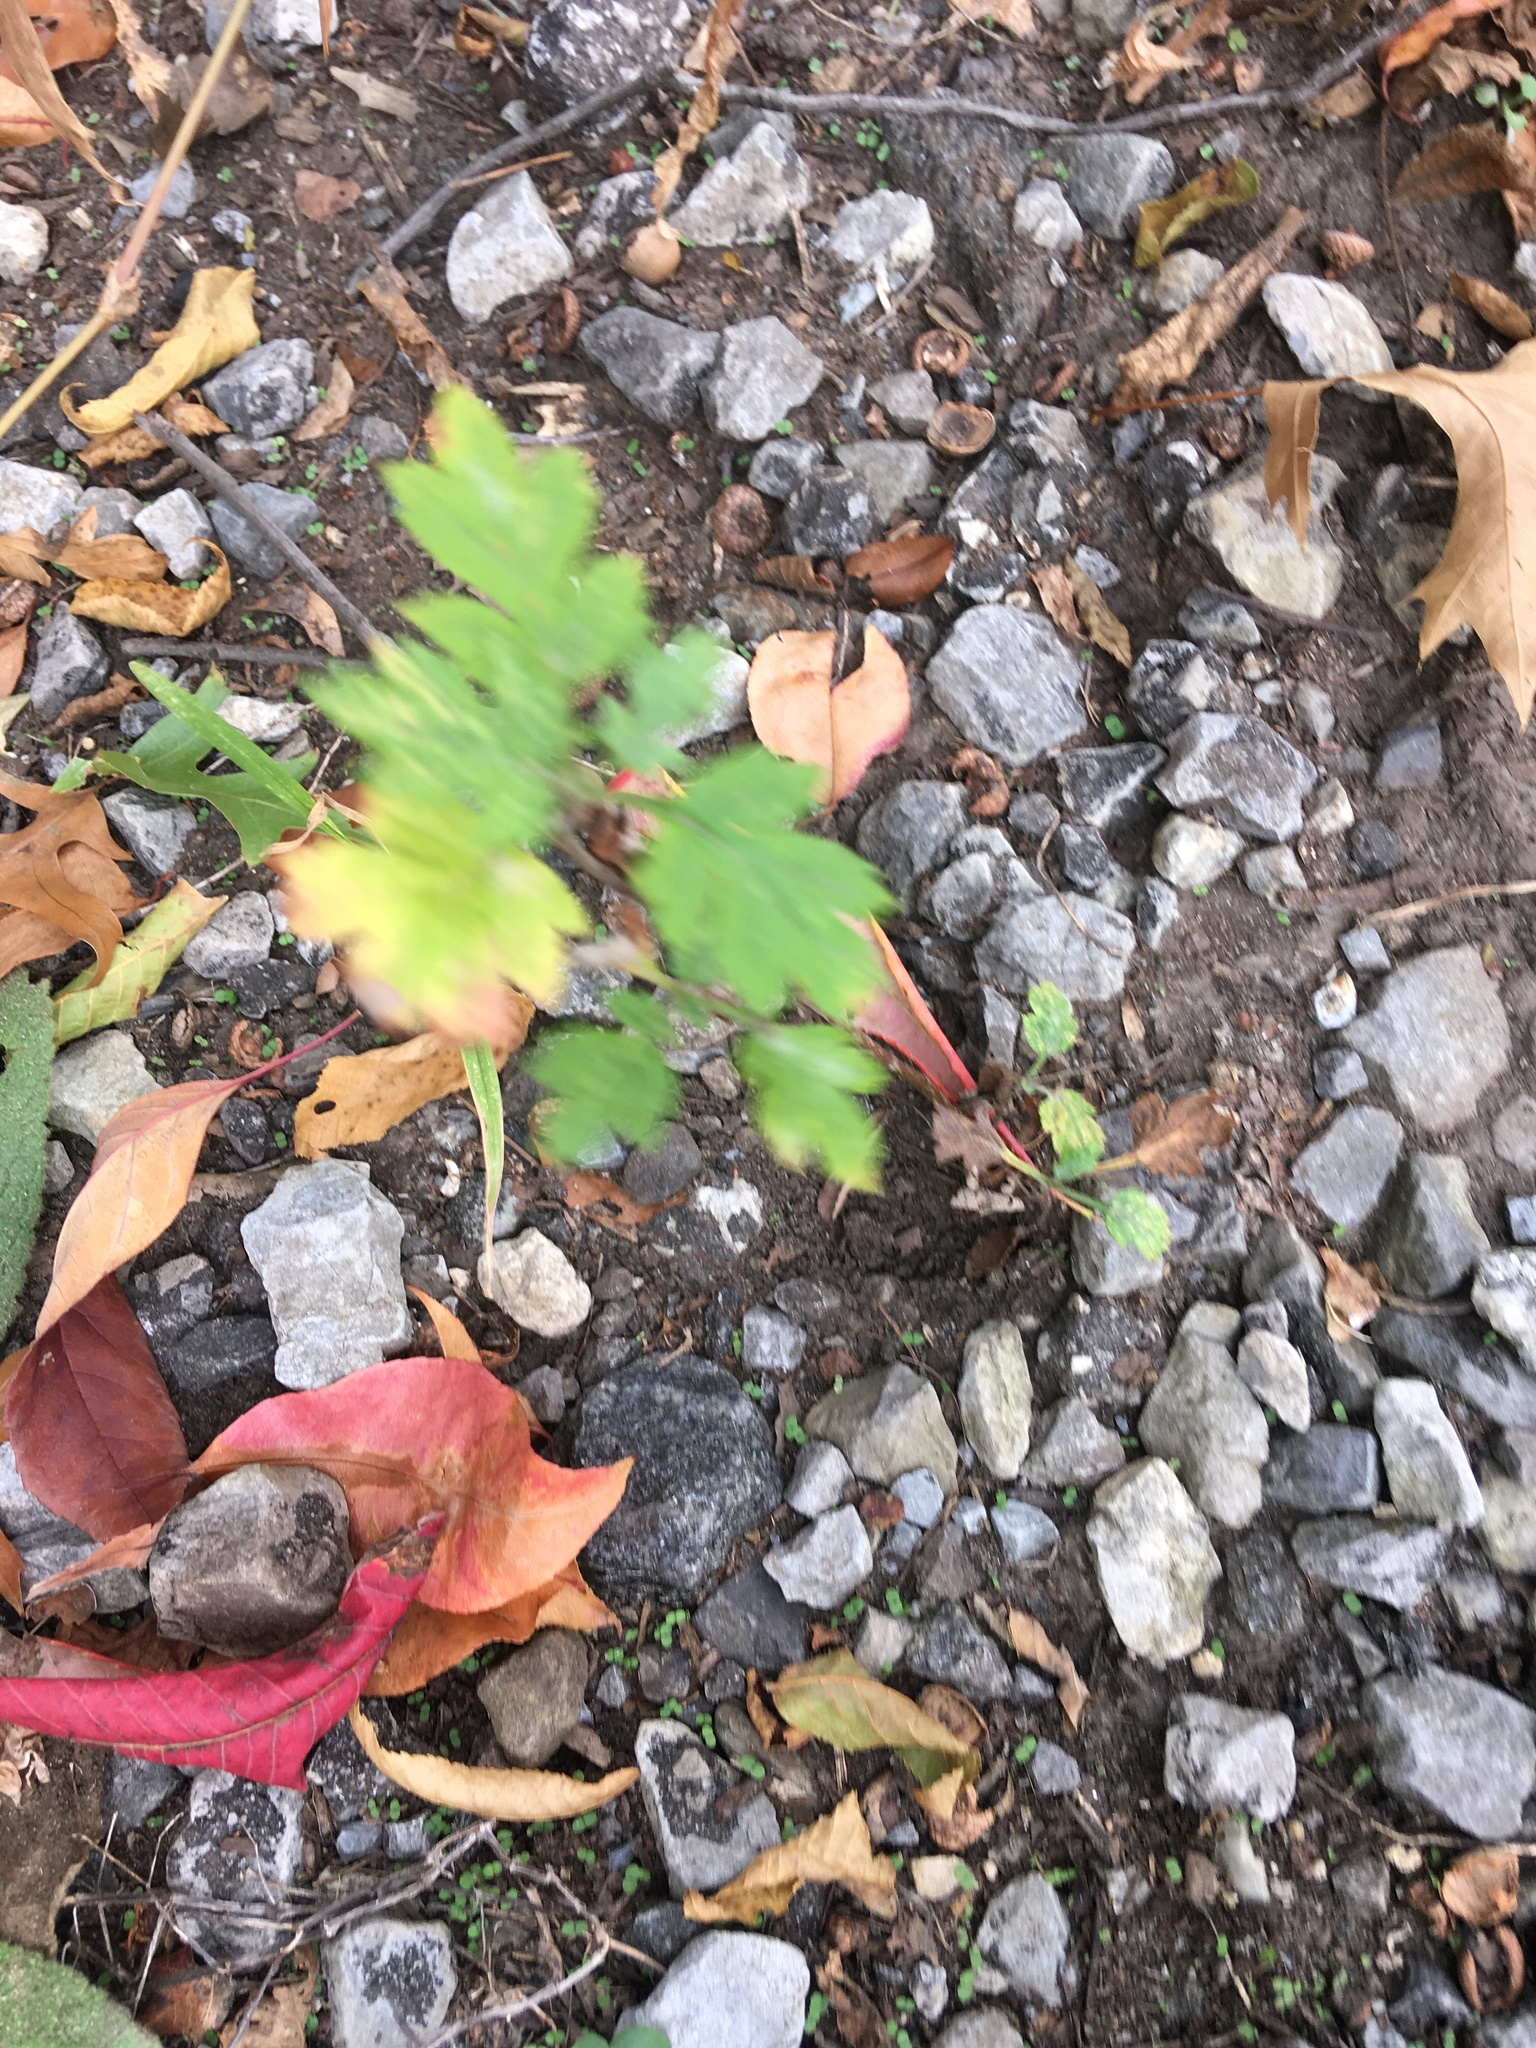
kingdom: Plantae
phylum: Tracheophyta
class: Magnoliopsida
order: Asterales
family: Asteraceae
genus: Artemisia
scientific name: Artemisia vulgaris
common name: Mugwort
